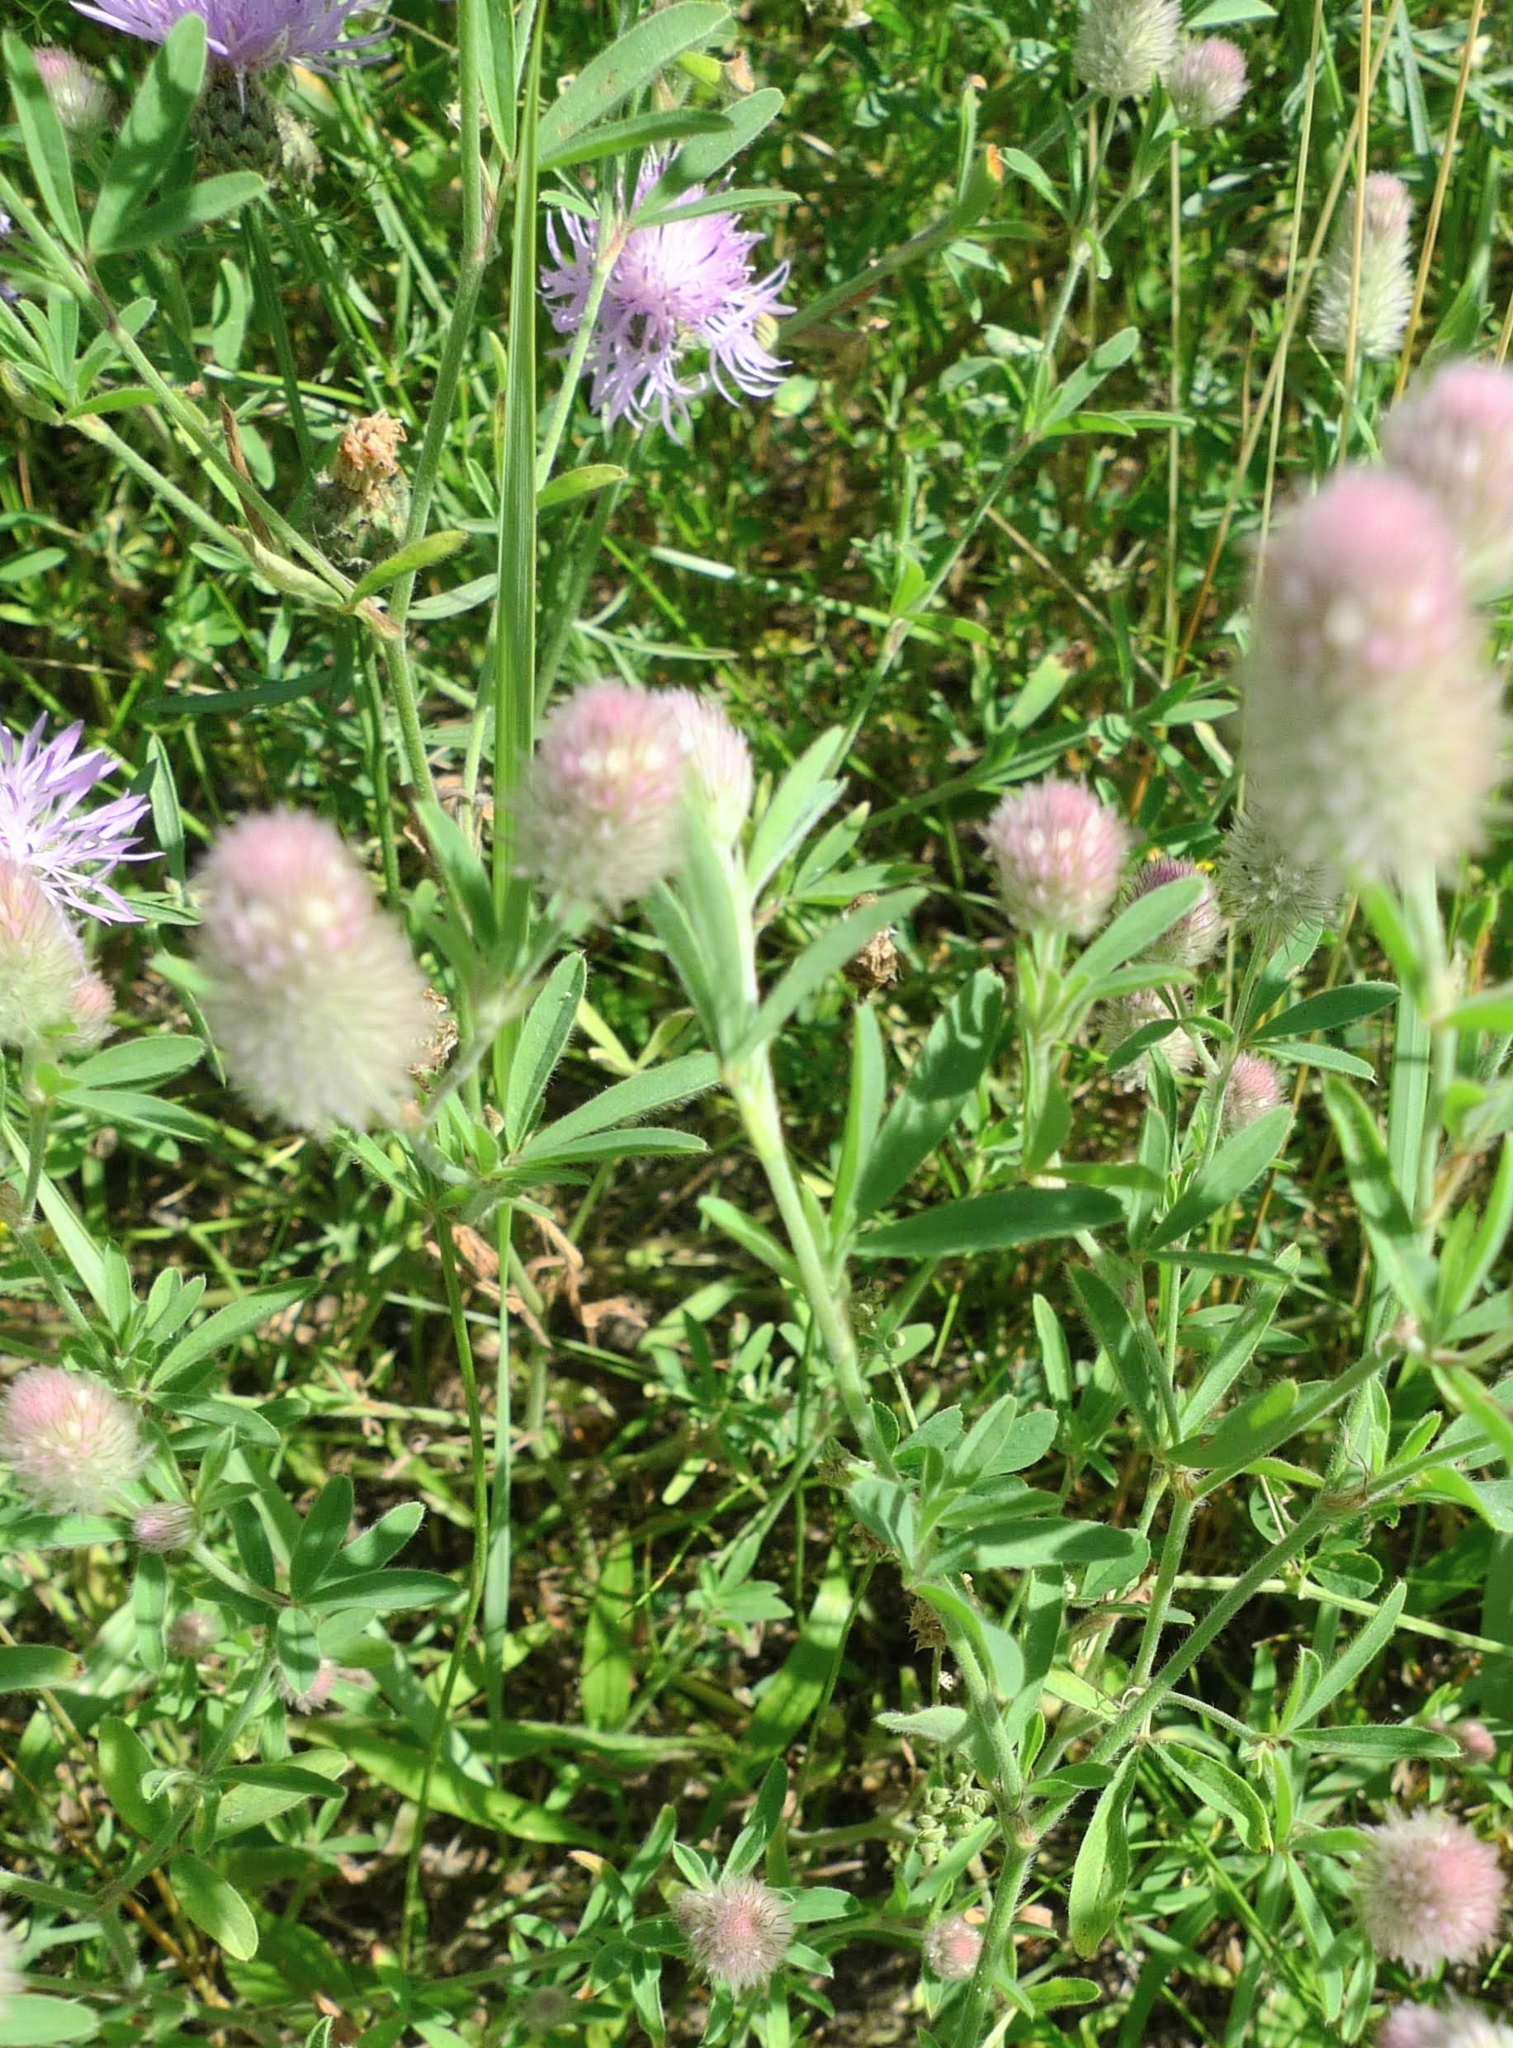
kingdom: Plantae
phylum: Tracheophyta
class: Magnoliopsida
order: Fabales
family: Fabaceae
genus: Trifolium
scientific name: Trifolium arvense
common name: Hare's-foot clover
